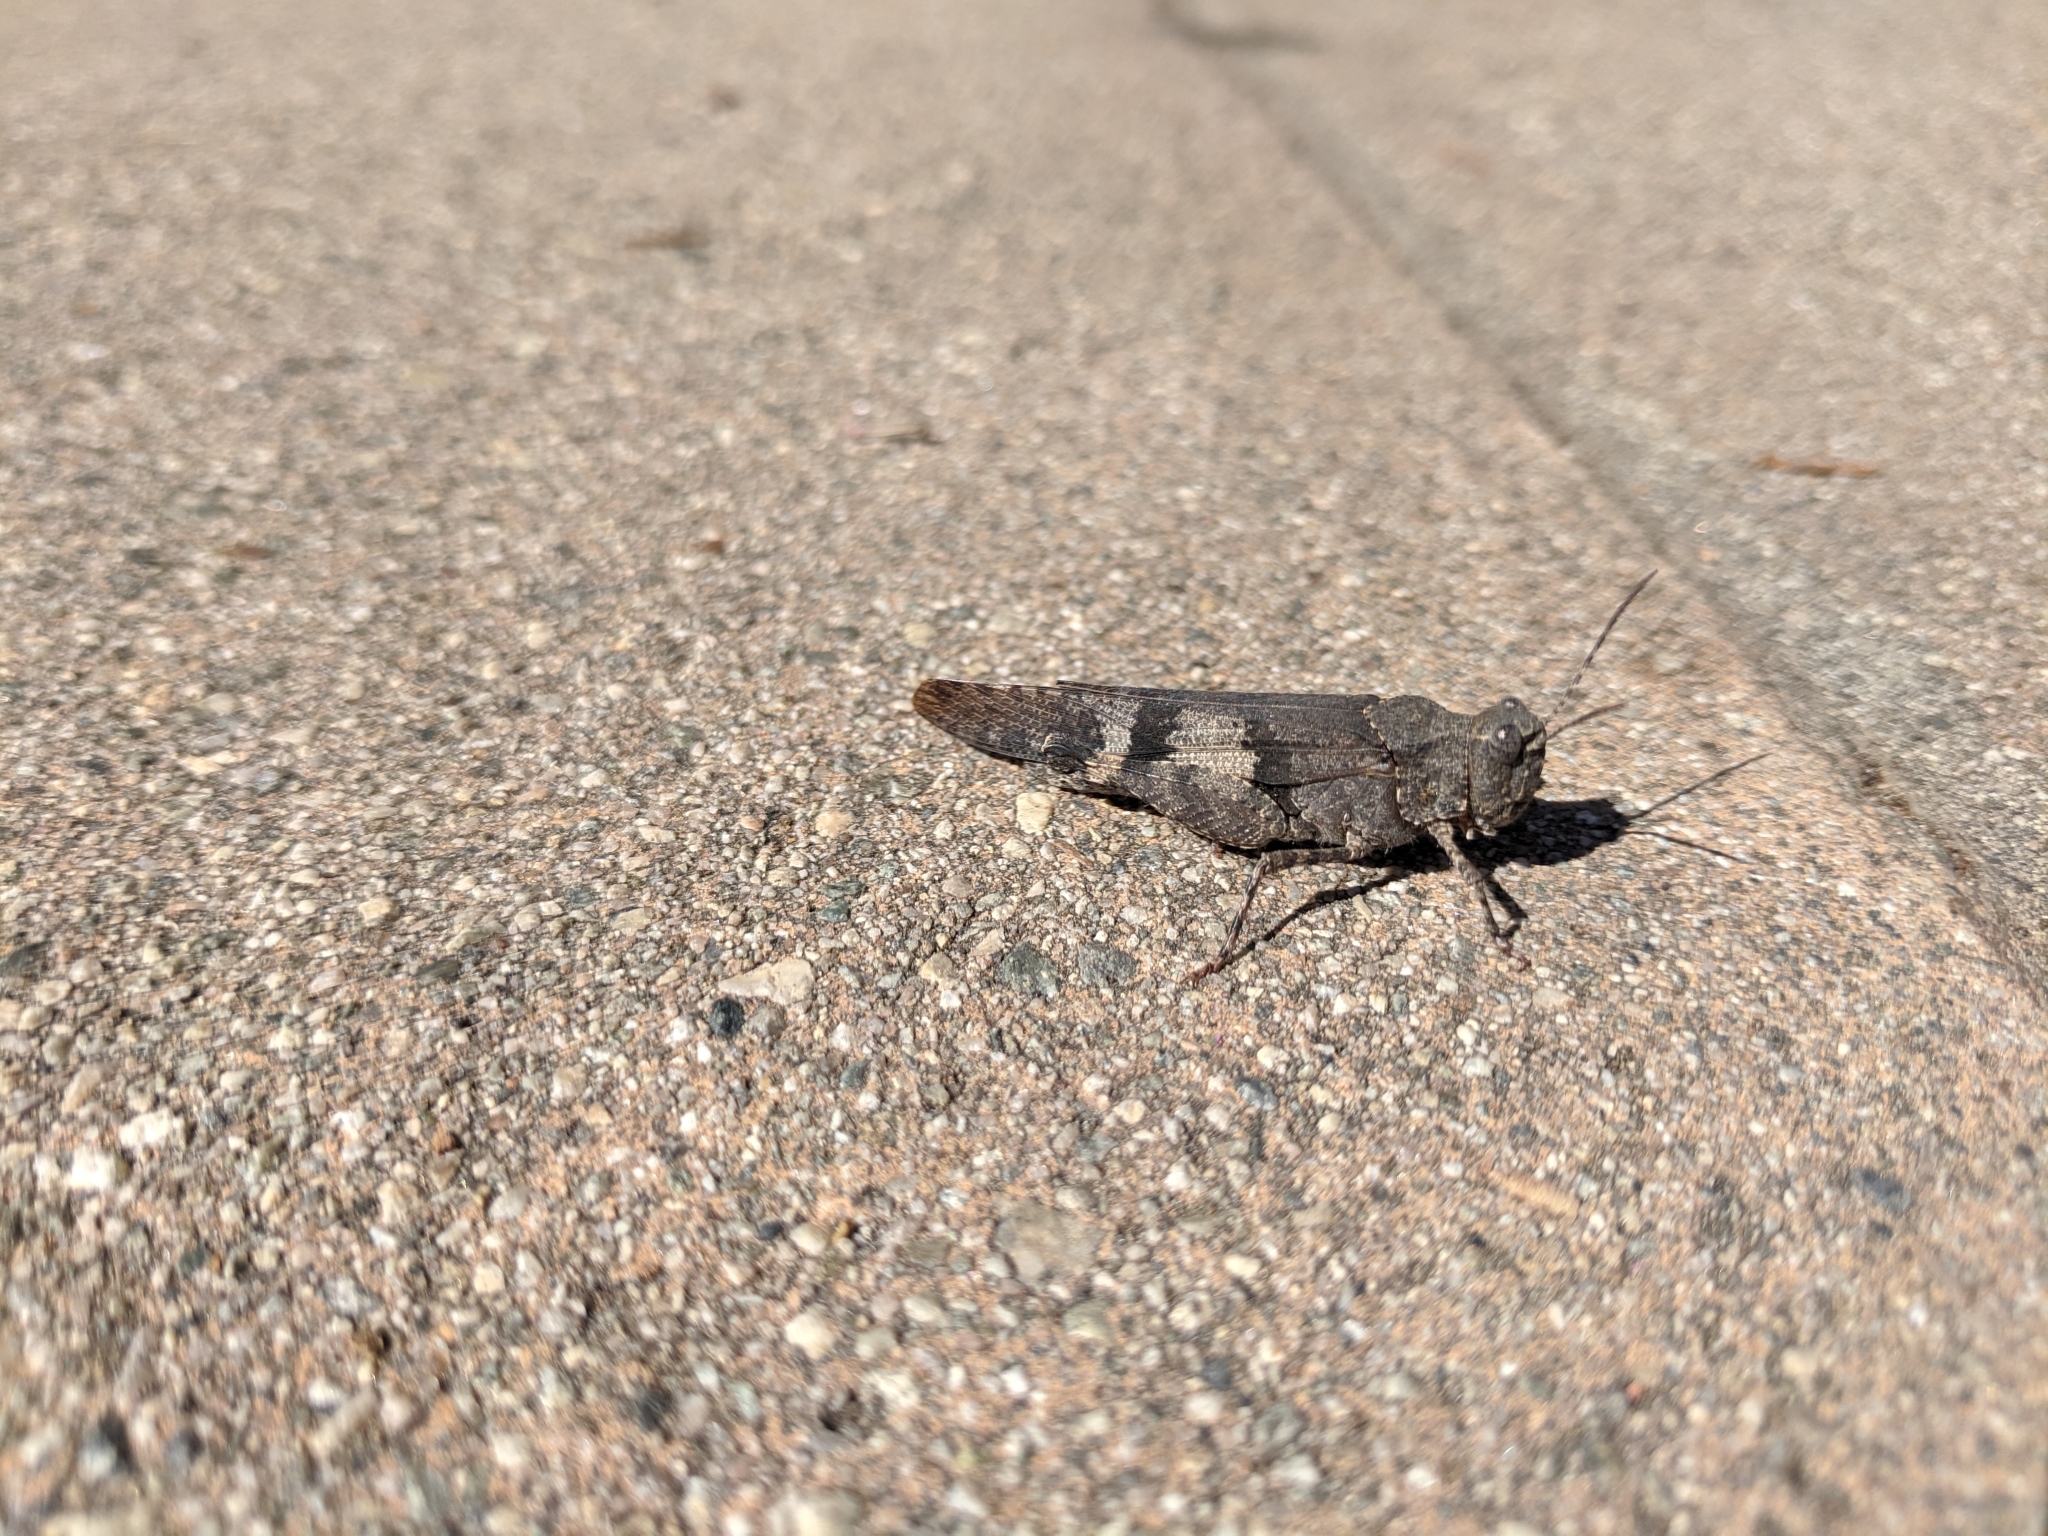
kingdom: Animalia
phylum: Arthropoda
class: Insecta
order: Orthoptera
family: Acrididae
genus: Trimerotropis
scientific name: Trimerotropis fontana
